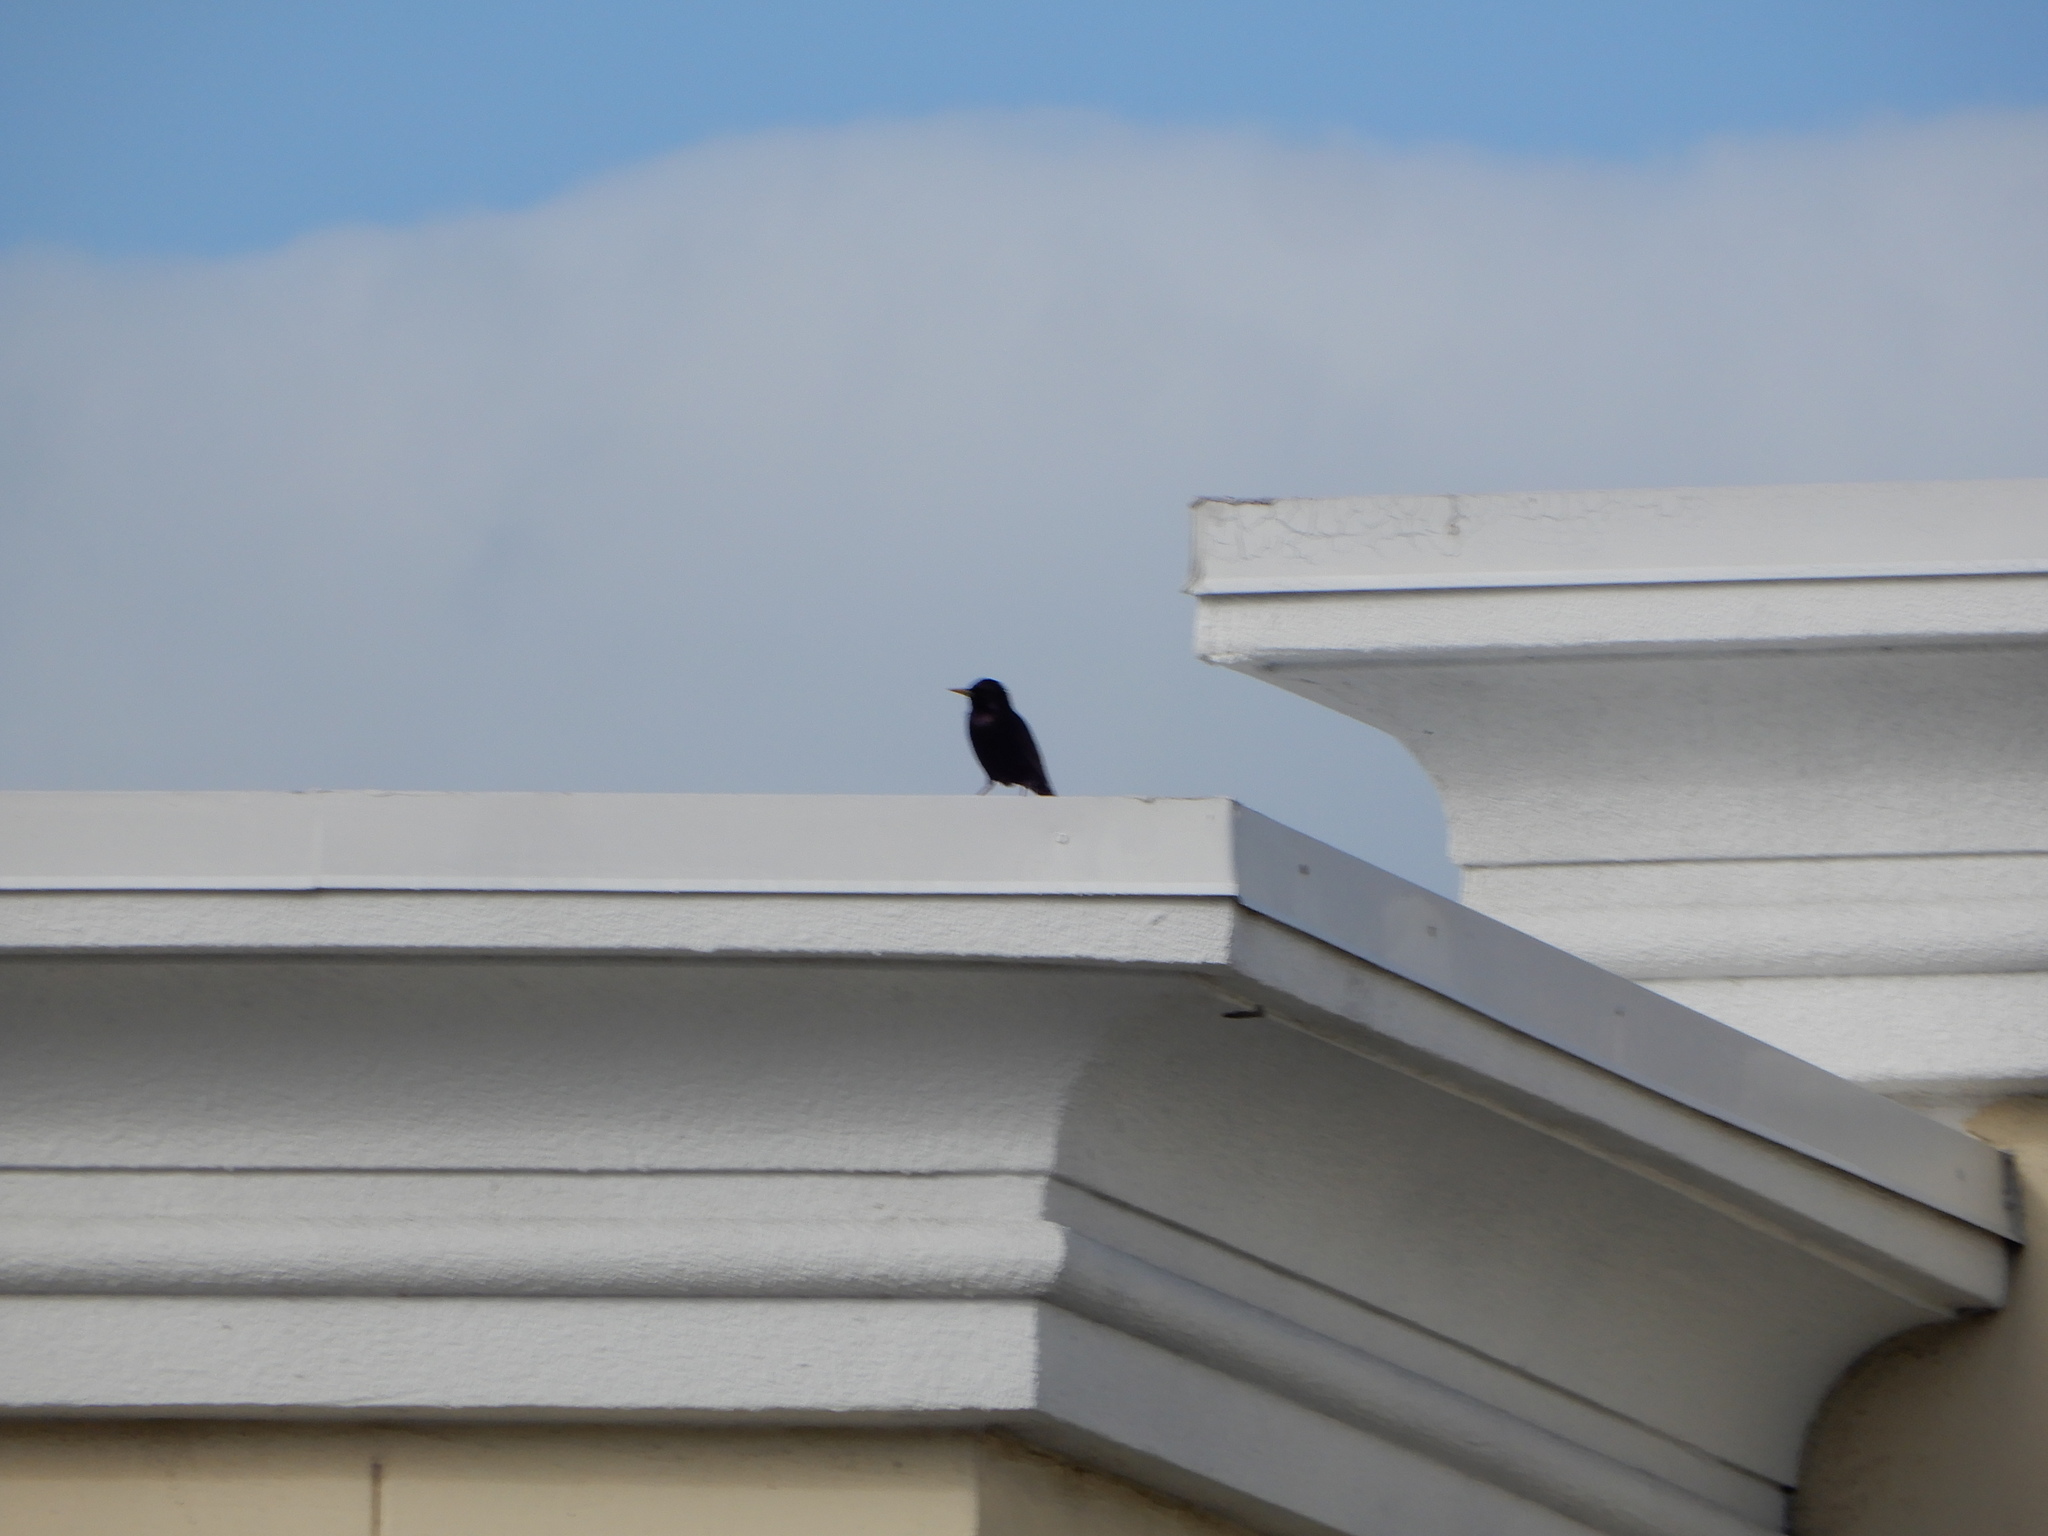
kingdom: Animalia
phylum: Chordata
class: Aves
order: Passeriformes
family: Sturnidae
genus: Sturnus
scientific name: Sturnus vulgaris
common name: Common starling
